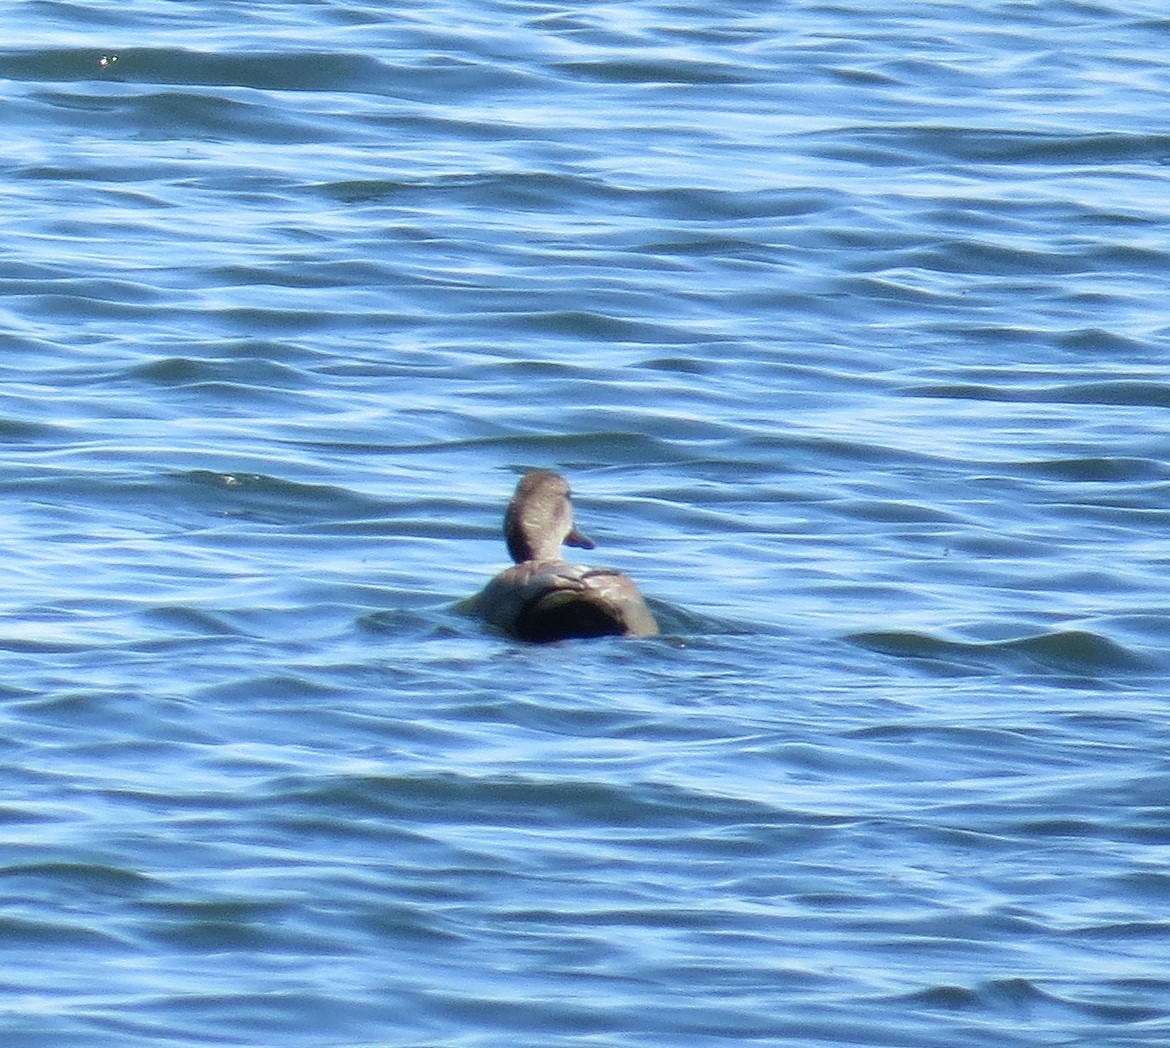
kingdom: Animalia
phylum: Chordata
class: Aves
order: Anseriformes
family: Anatidae
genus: Mareca
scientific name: Mareca strepera
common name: Gadwall
